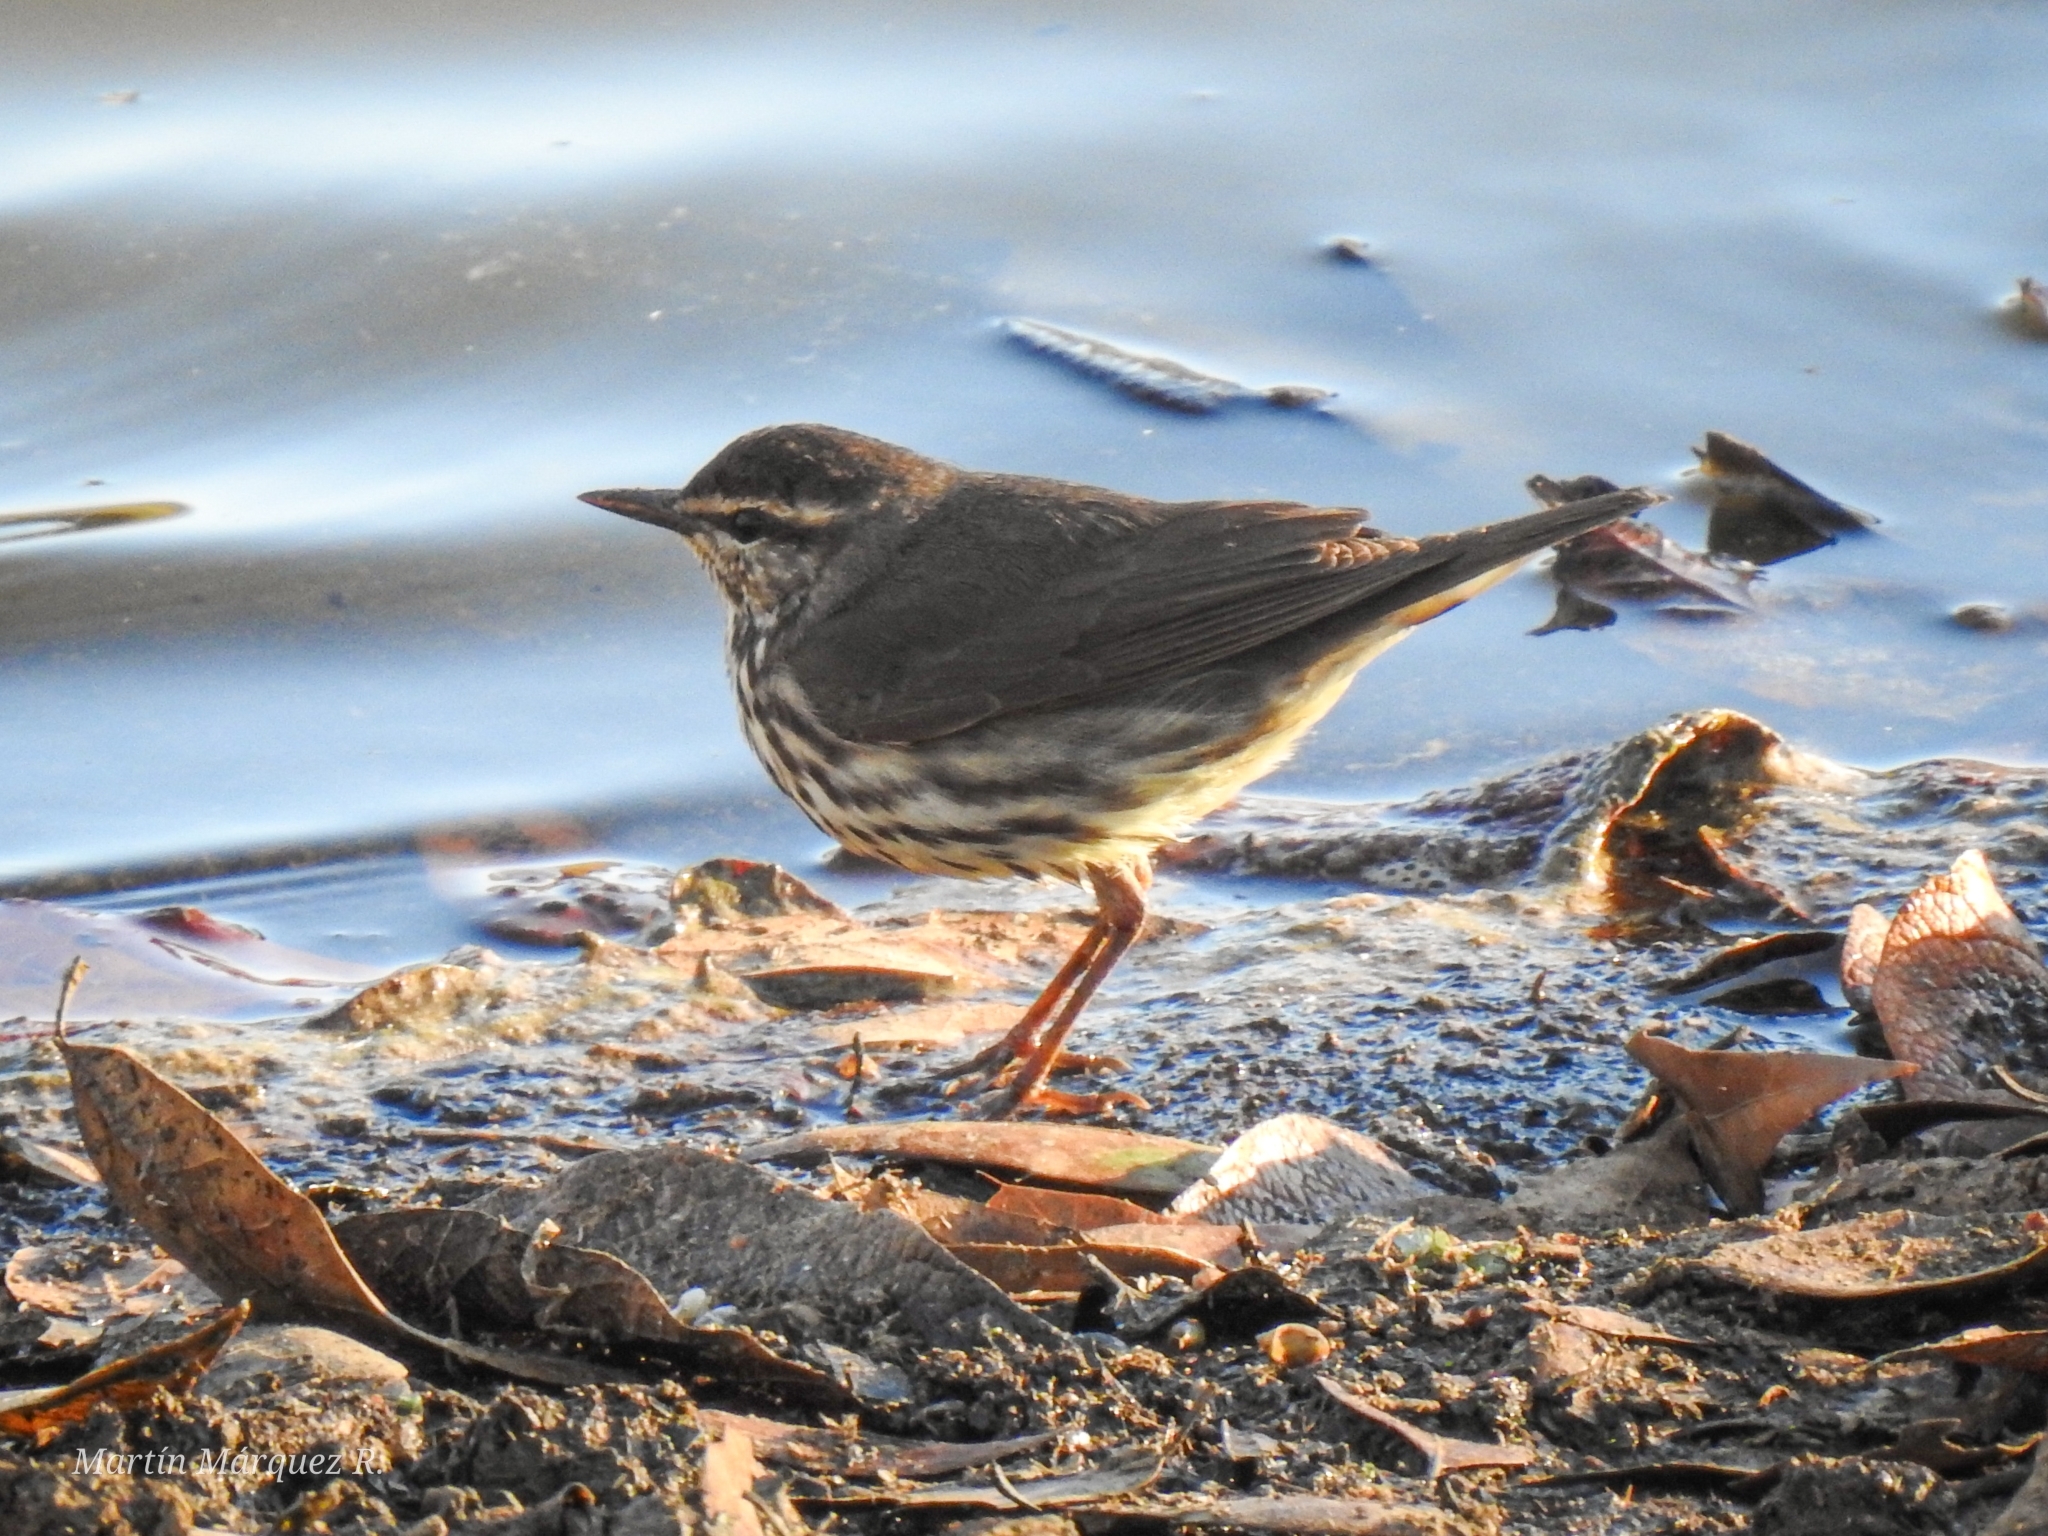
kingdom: Animalia
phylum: Chordata
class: Aves
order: Passeriformes
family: Parulidae
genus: Parkesia
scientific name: Parkesia noveboracensis
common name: Northern waterthrush
